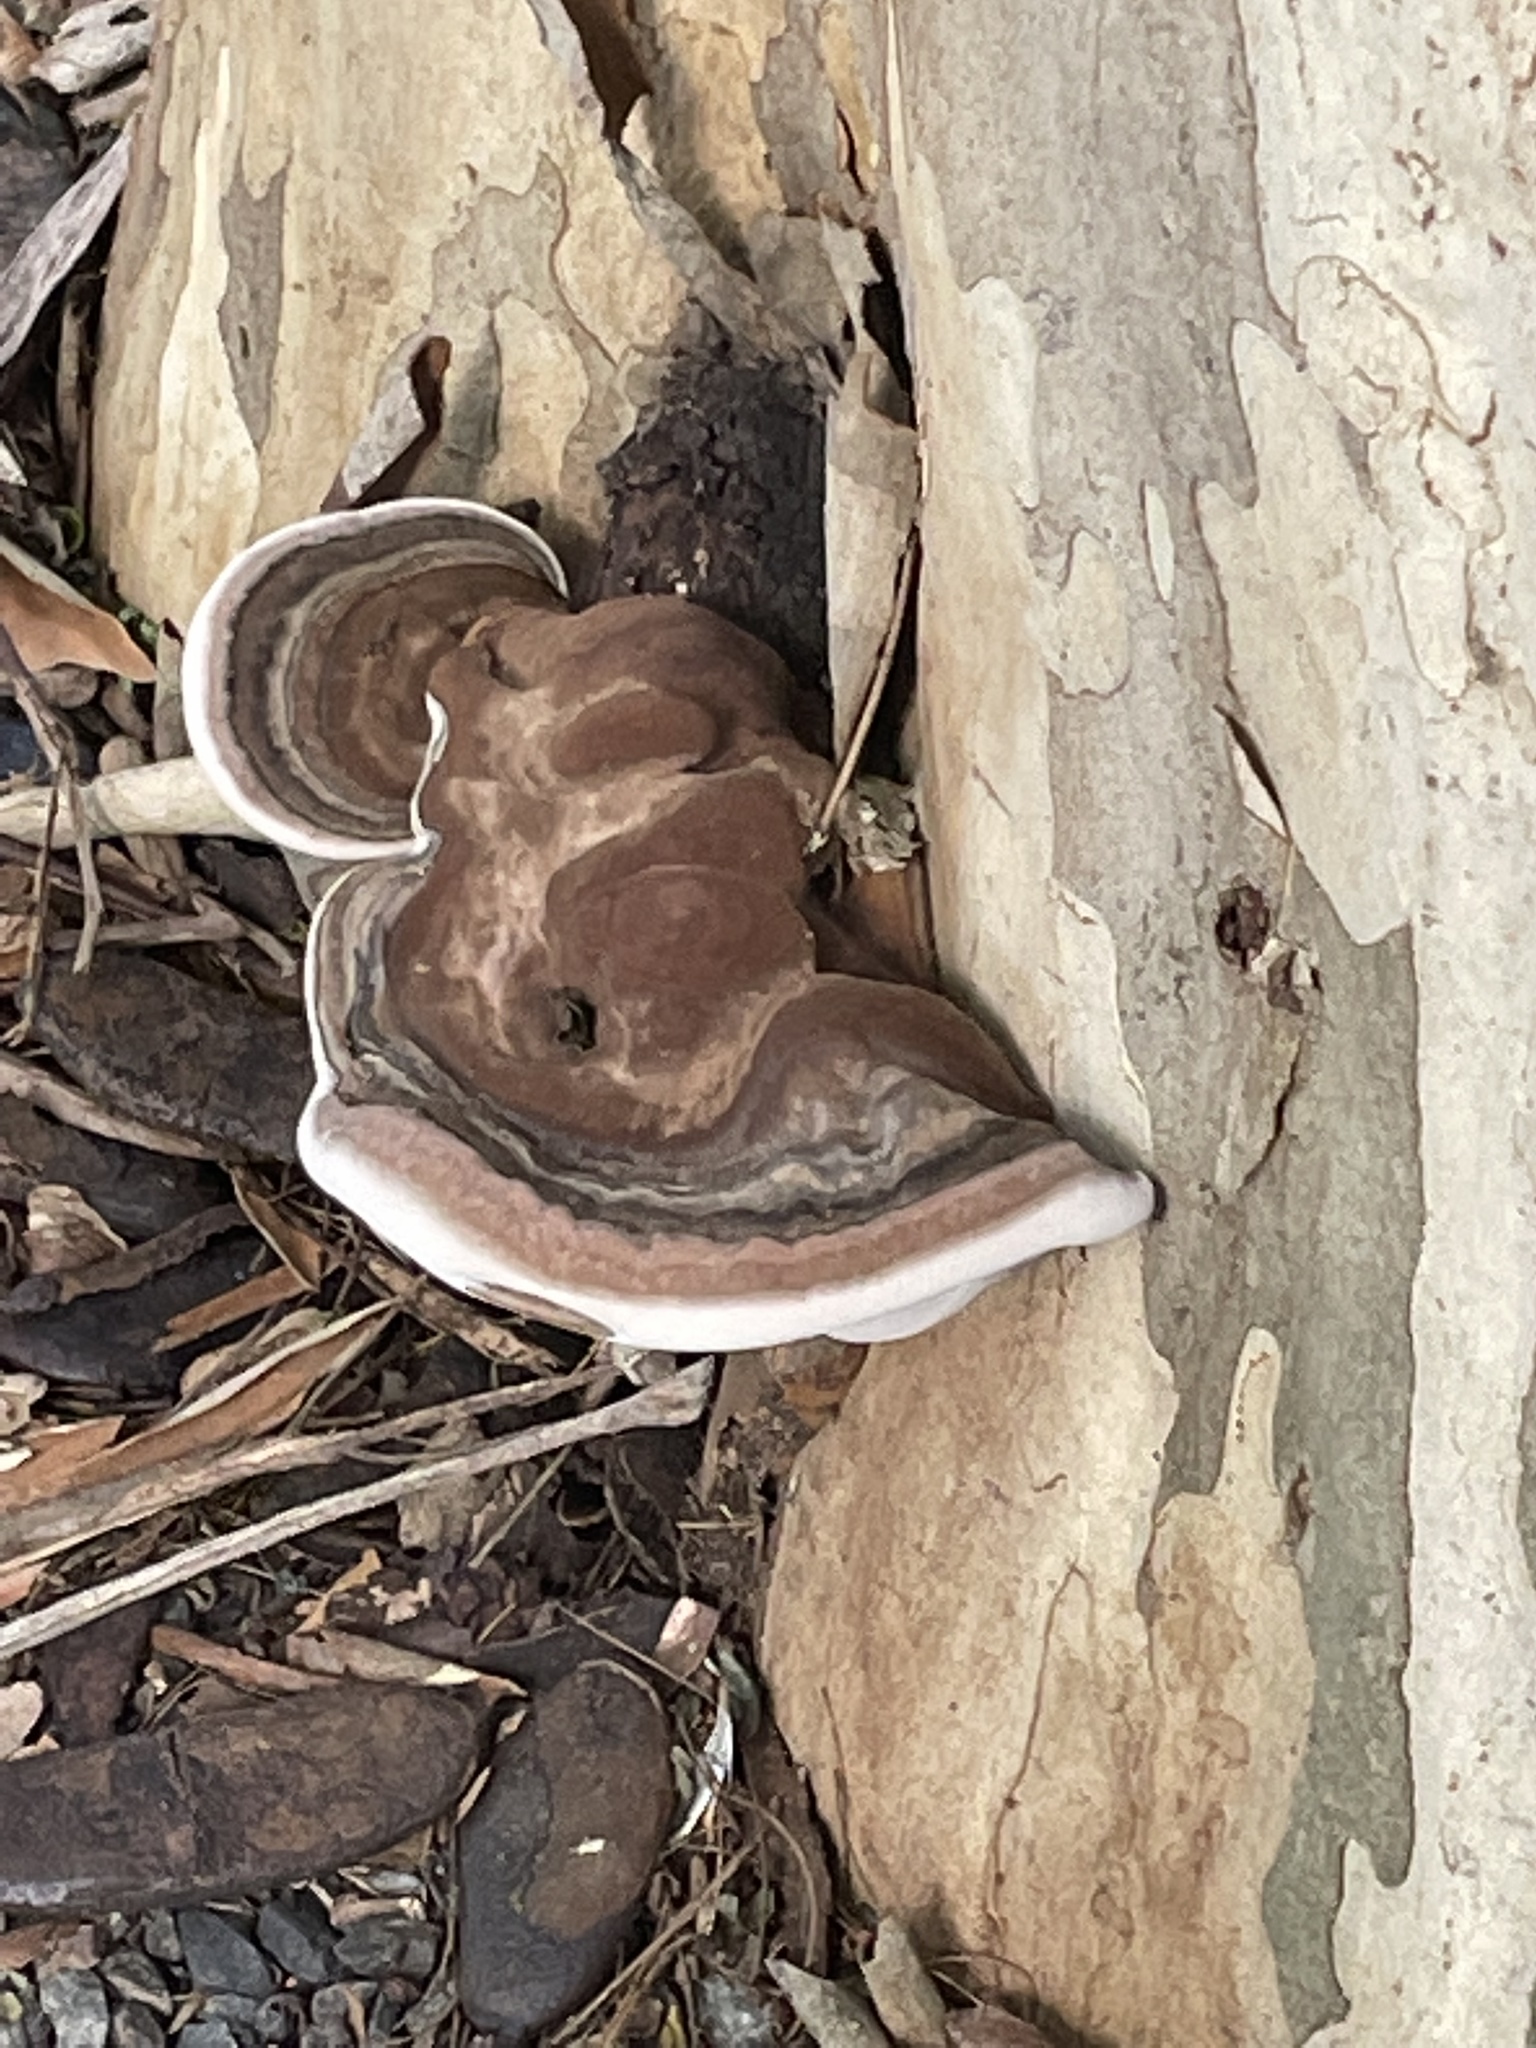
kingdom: Fungi
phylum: Basidiomycota
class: Agaricomycetes
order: Polyporales
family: Polyporaceae
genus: Ganoderma
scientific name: Ganoderma australe
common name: Southern bracket
